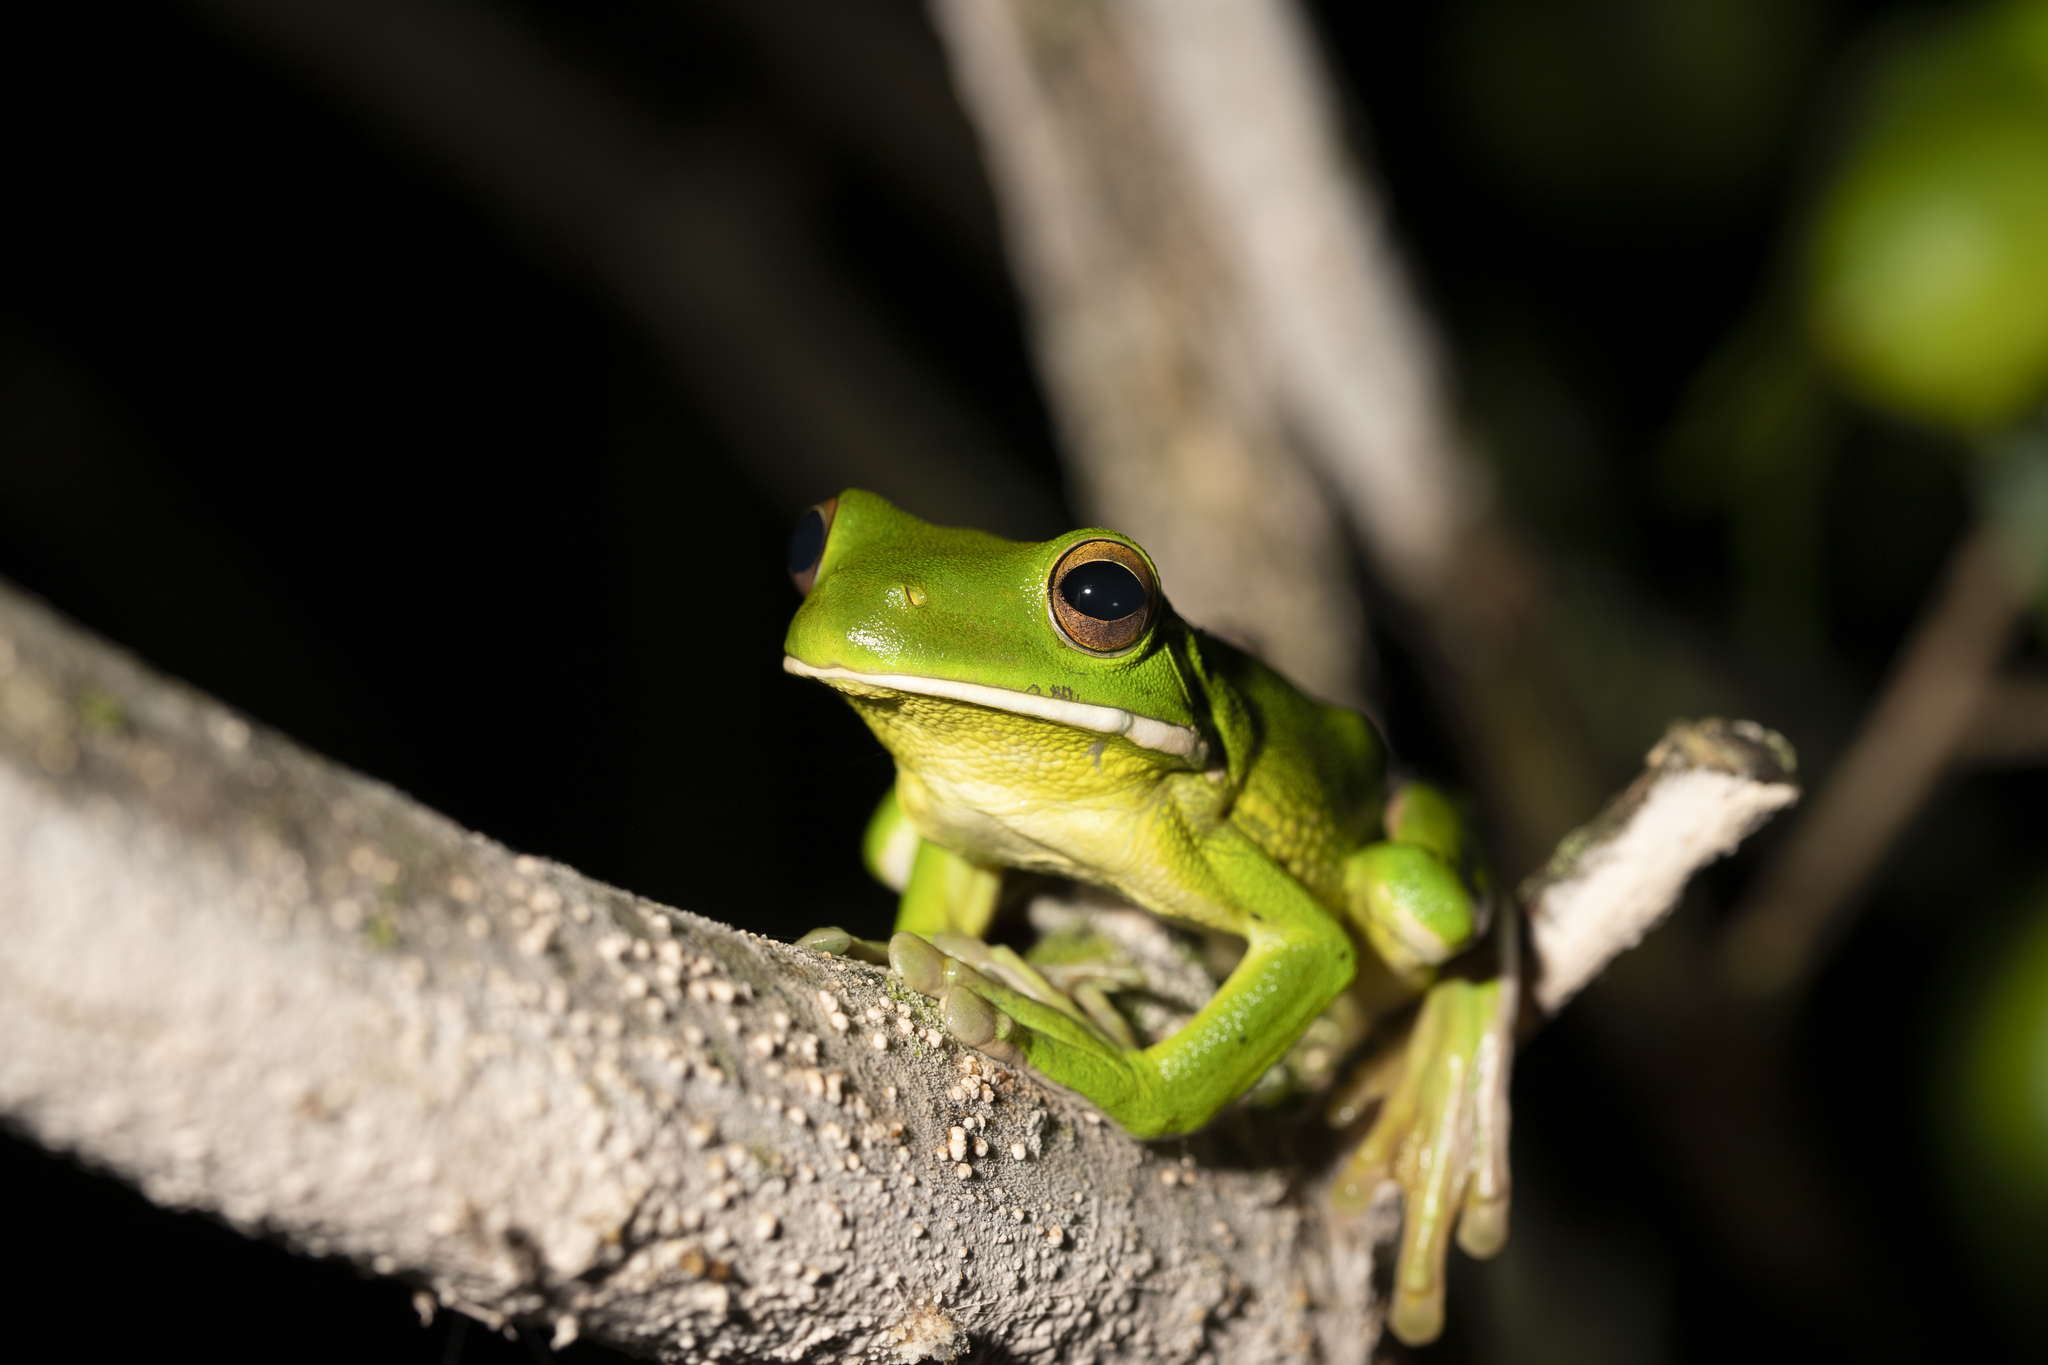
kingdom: Animalia
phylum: Chordata
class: Amphibia
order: Anura
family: Pelodryadidae
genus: Nyctimystes
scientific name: Nyctimystes infrafrenatus
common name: Australian giant treefrog
